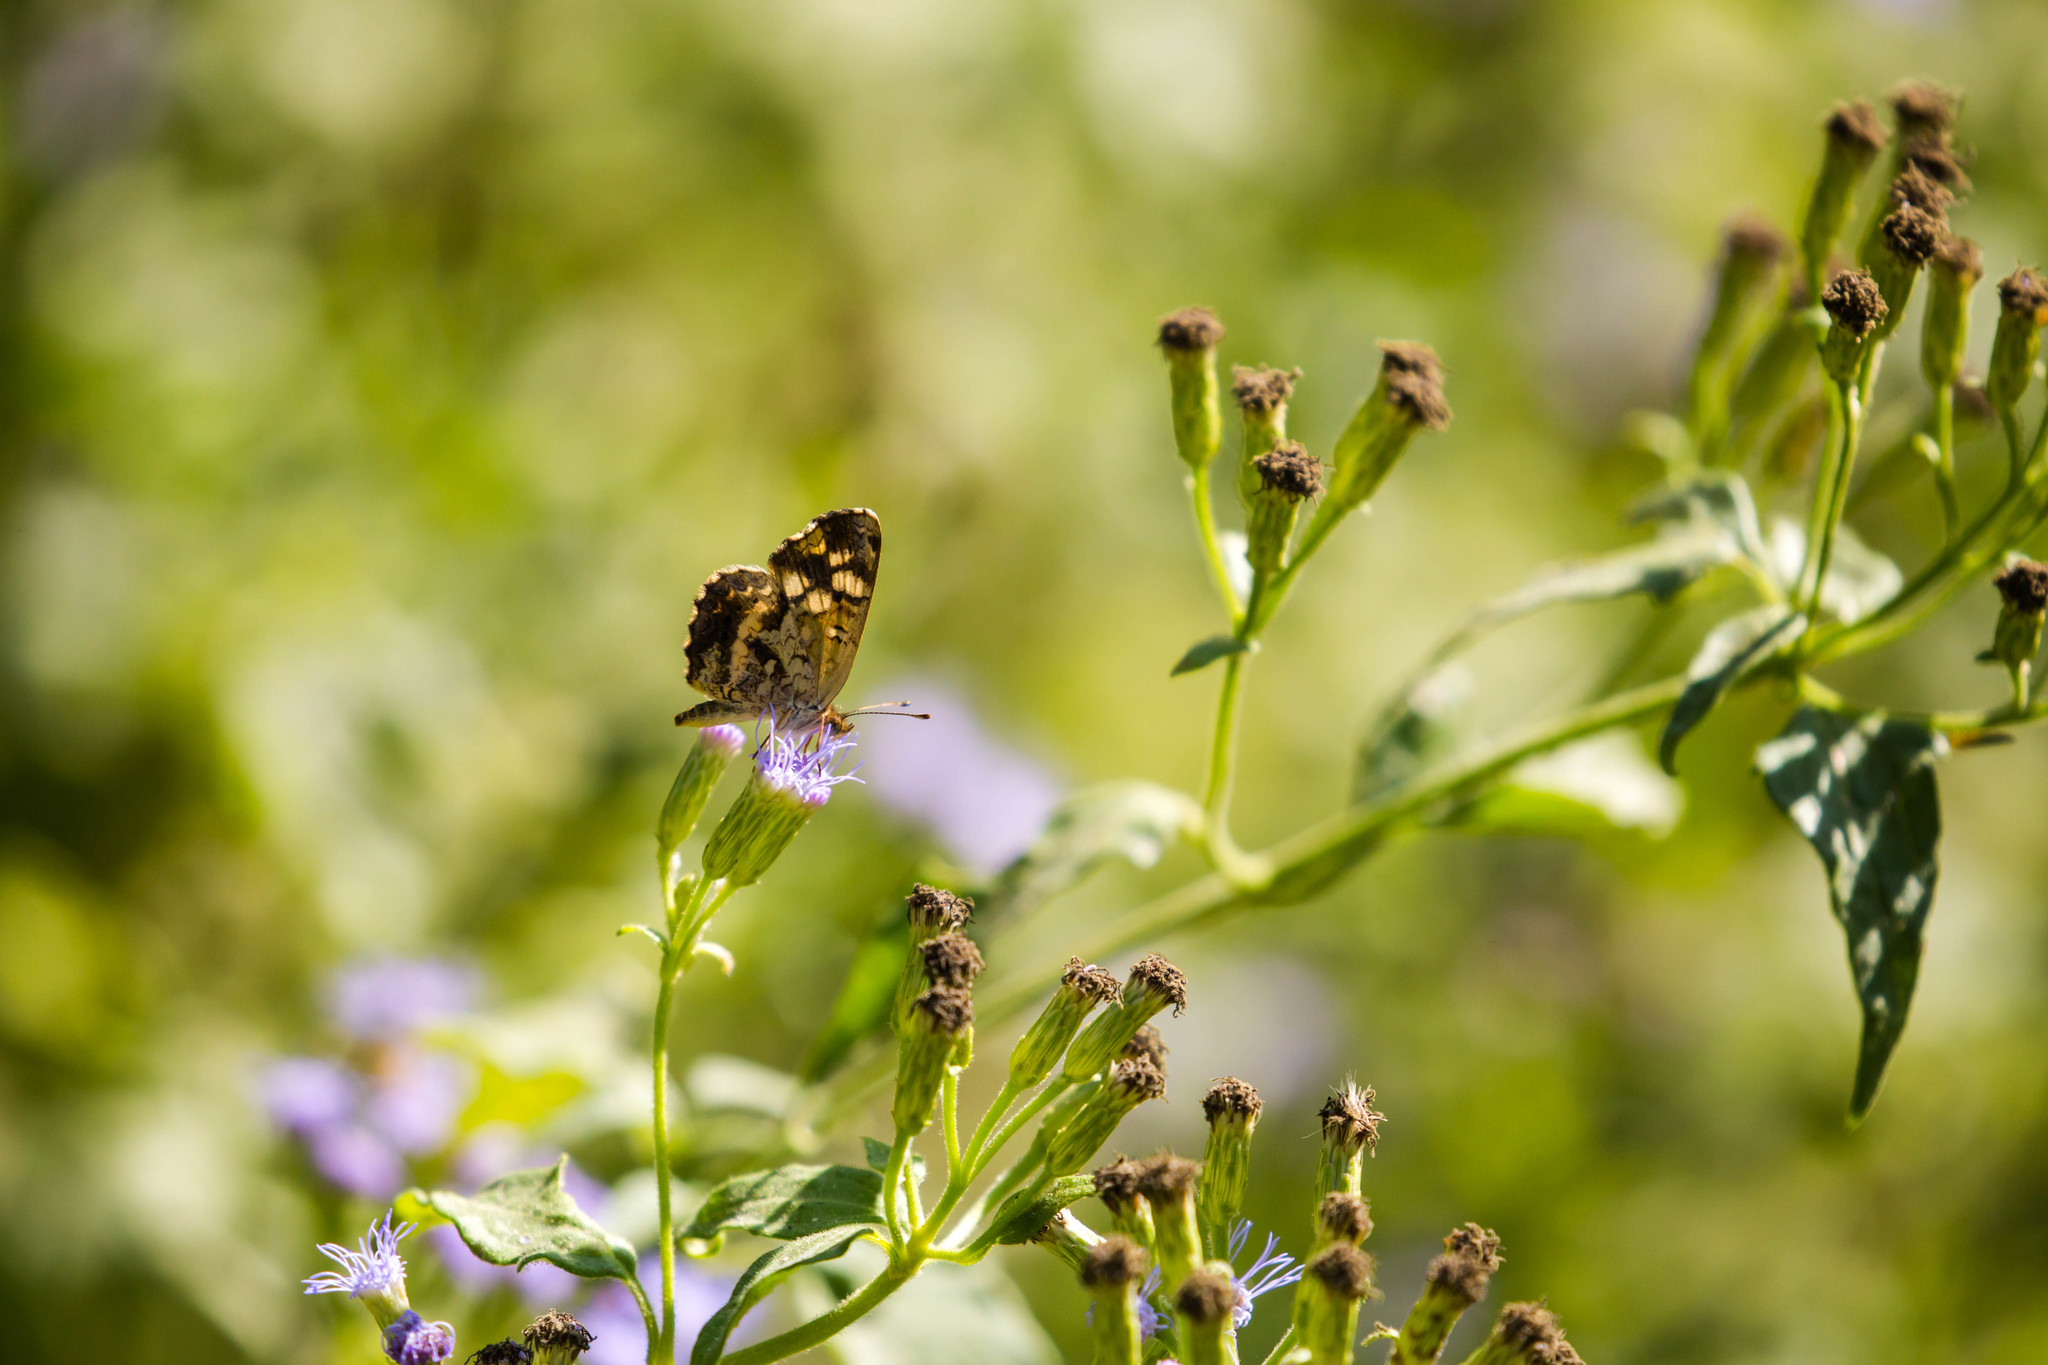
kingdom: Animalia
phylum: Arthropoda
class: Insecta
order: Lepidoptera
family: Nymphalidae
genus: Anthanassa
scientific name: Anthanassa tulcis
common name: Pale-banded crescent
